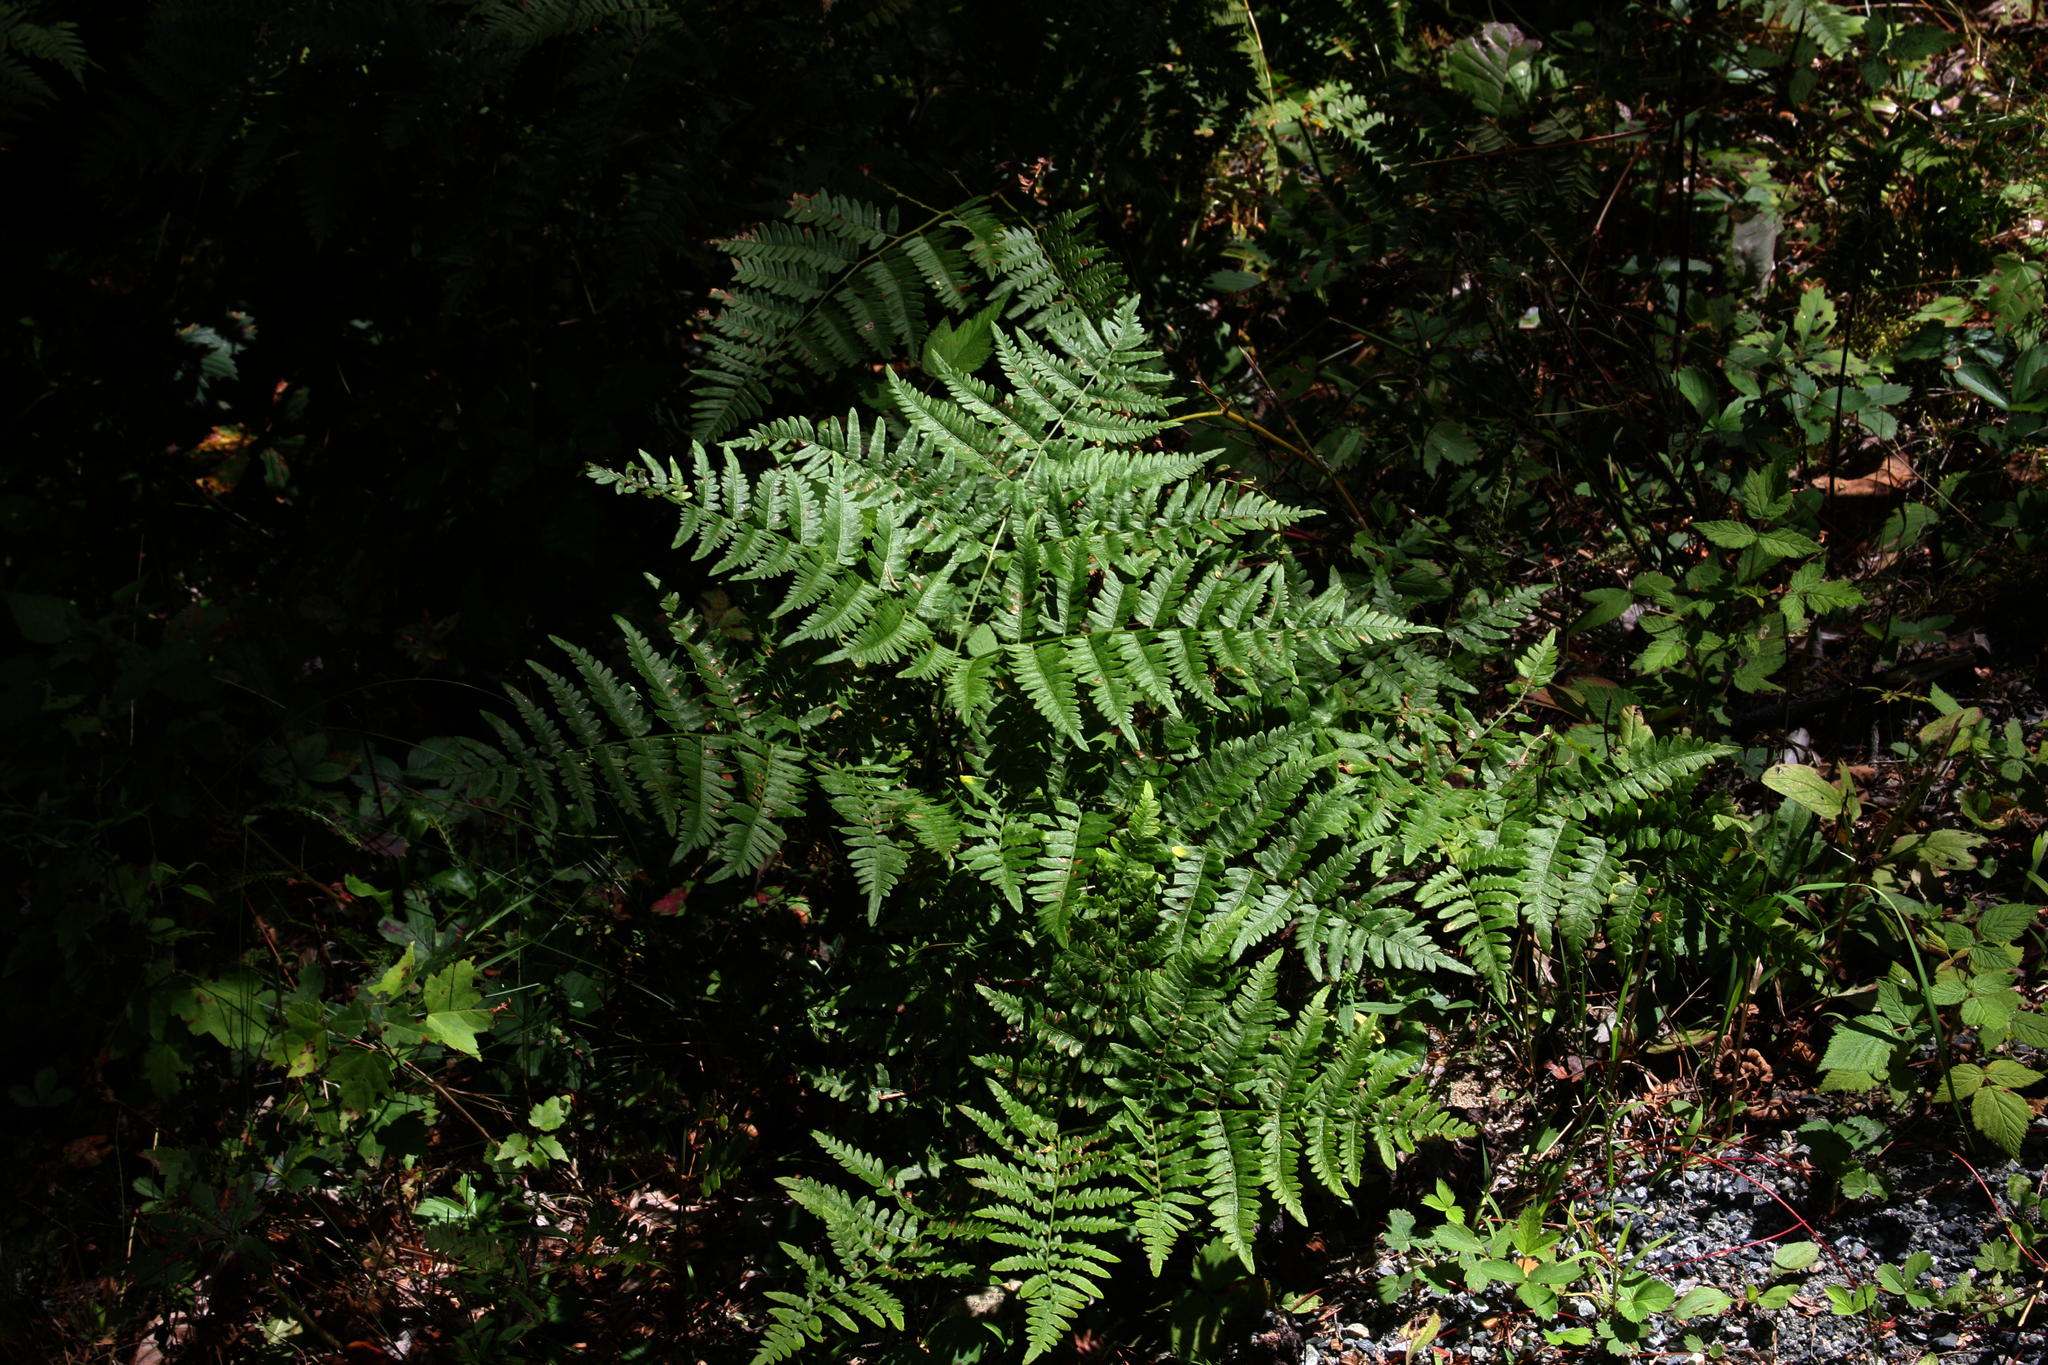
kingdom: Plantae
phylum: Tracheophyta
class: Polypodiopsida
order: Polypodiales
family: Dennstaedtiaceae
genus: Pteridium
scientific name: Pteridium aquilinum
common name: Bracken
